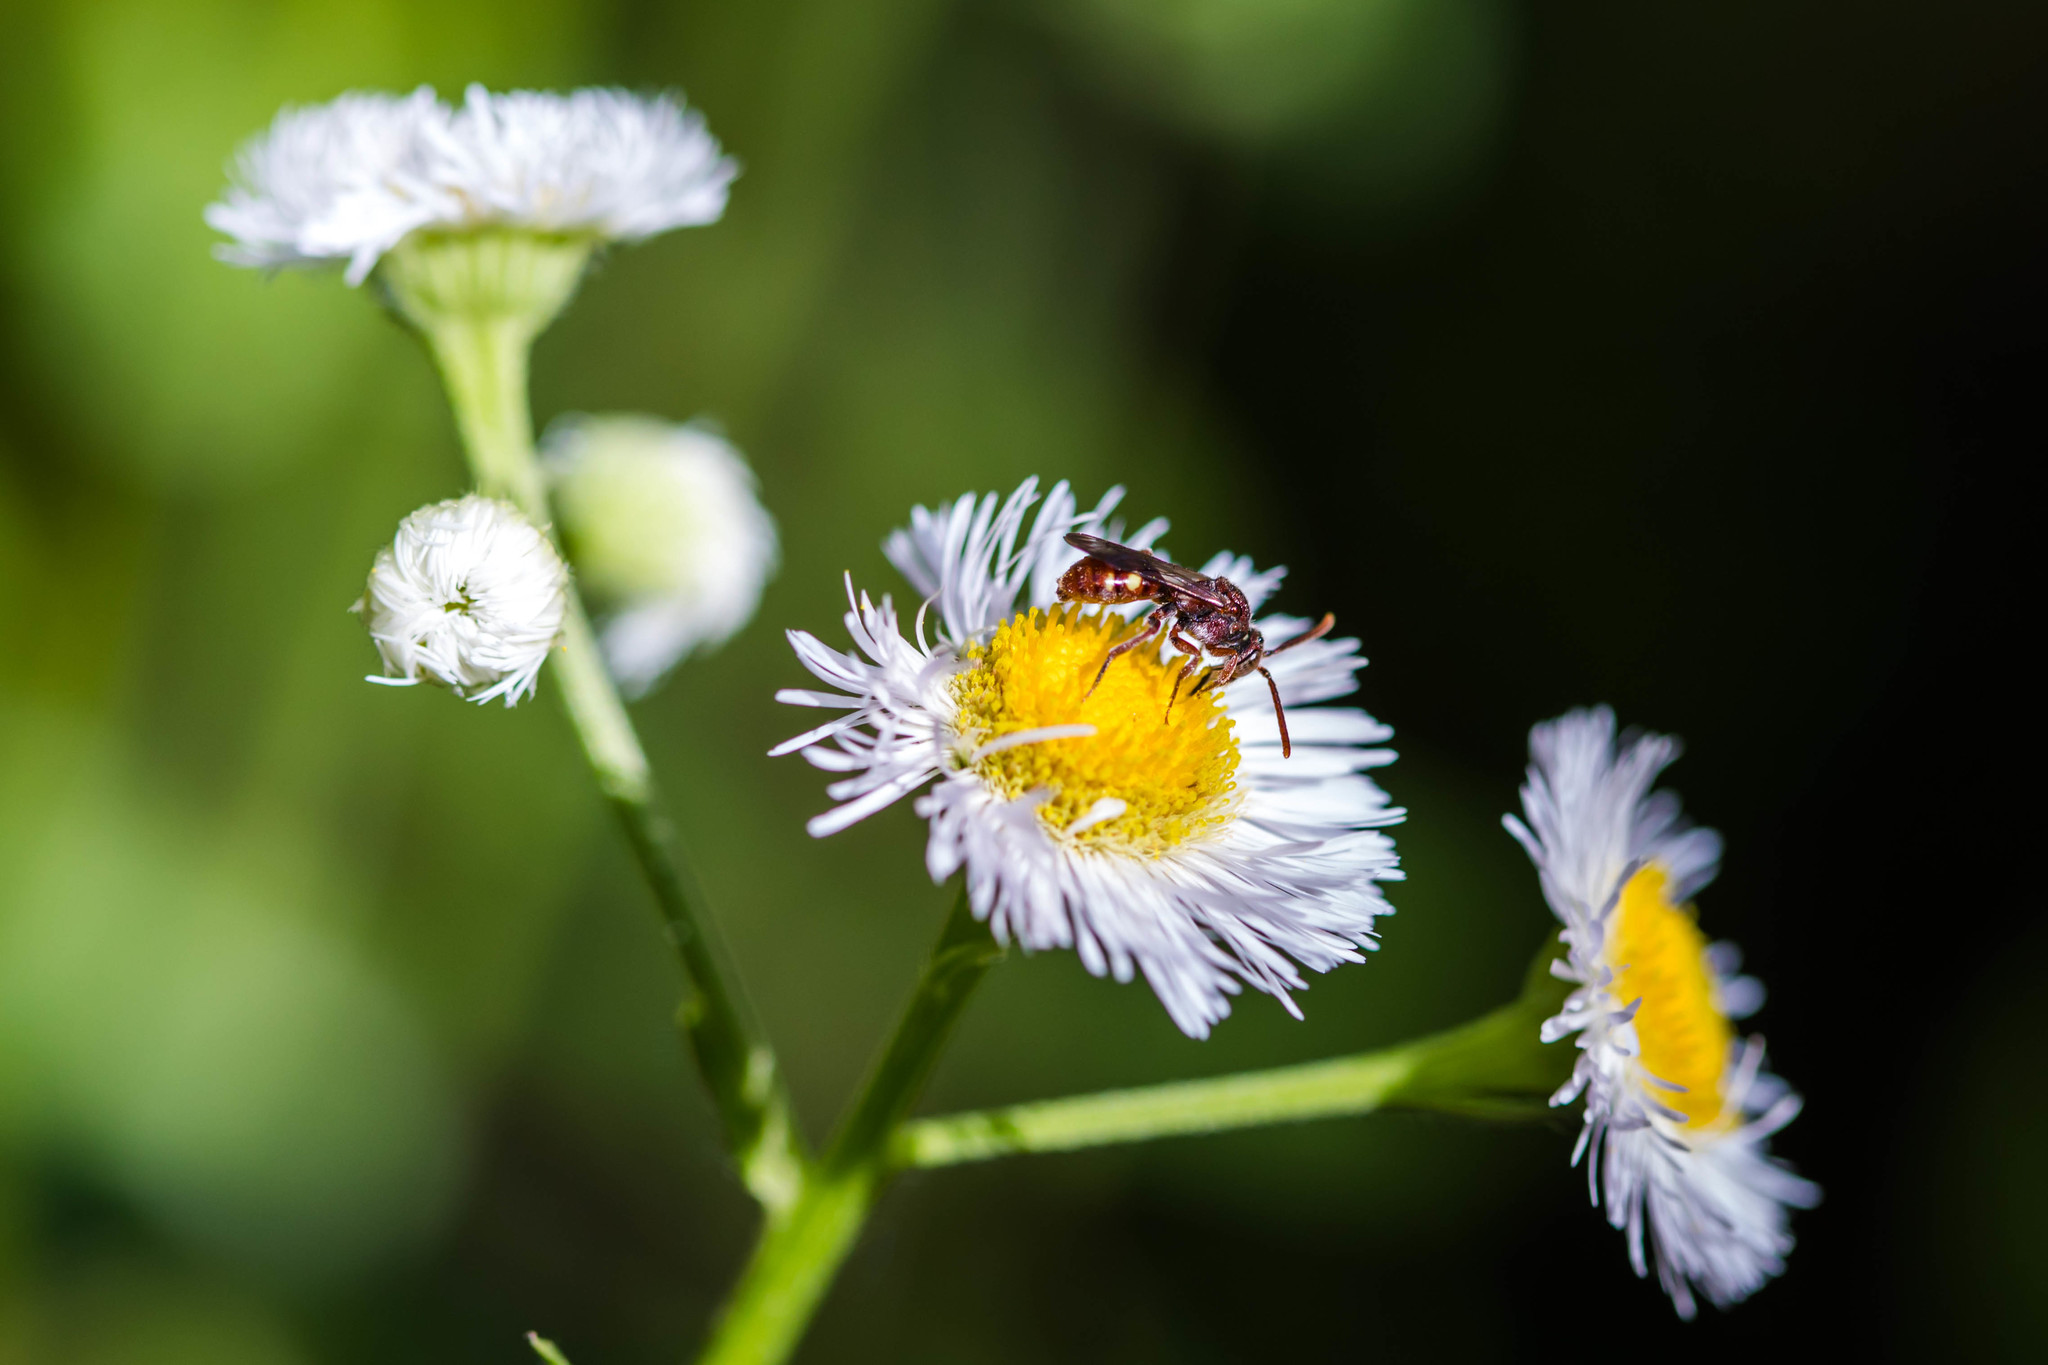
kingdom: Animalia
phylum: Arthropoda
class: Insecta
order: Hymenoptera
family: Apidae
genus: Nomada
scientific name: Nomada
